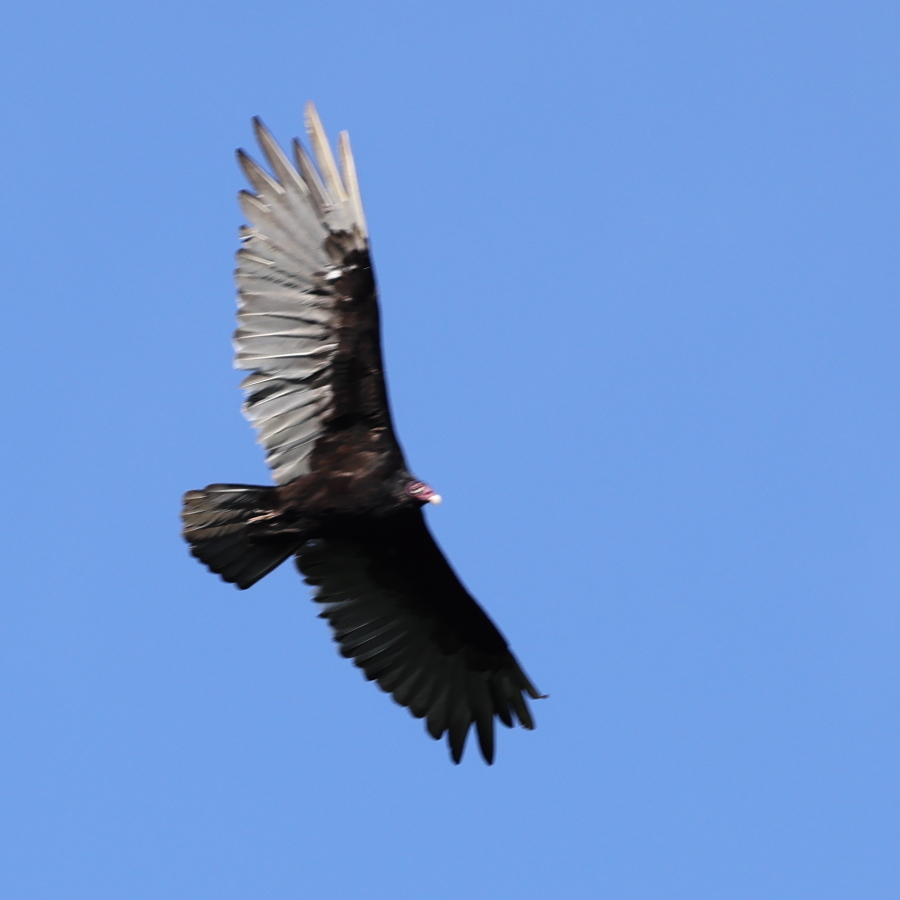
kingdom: Animalia
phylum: Chordata
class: Aves
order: Accipitriformes
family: Cathartidae
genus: Cathartes
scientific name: Cathartes aura
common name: Turkey vulture
